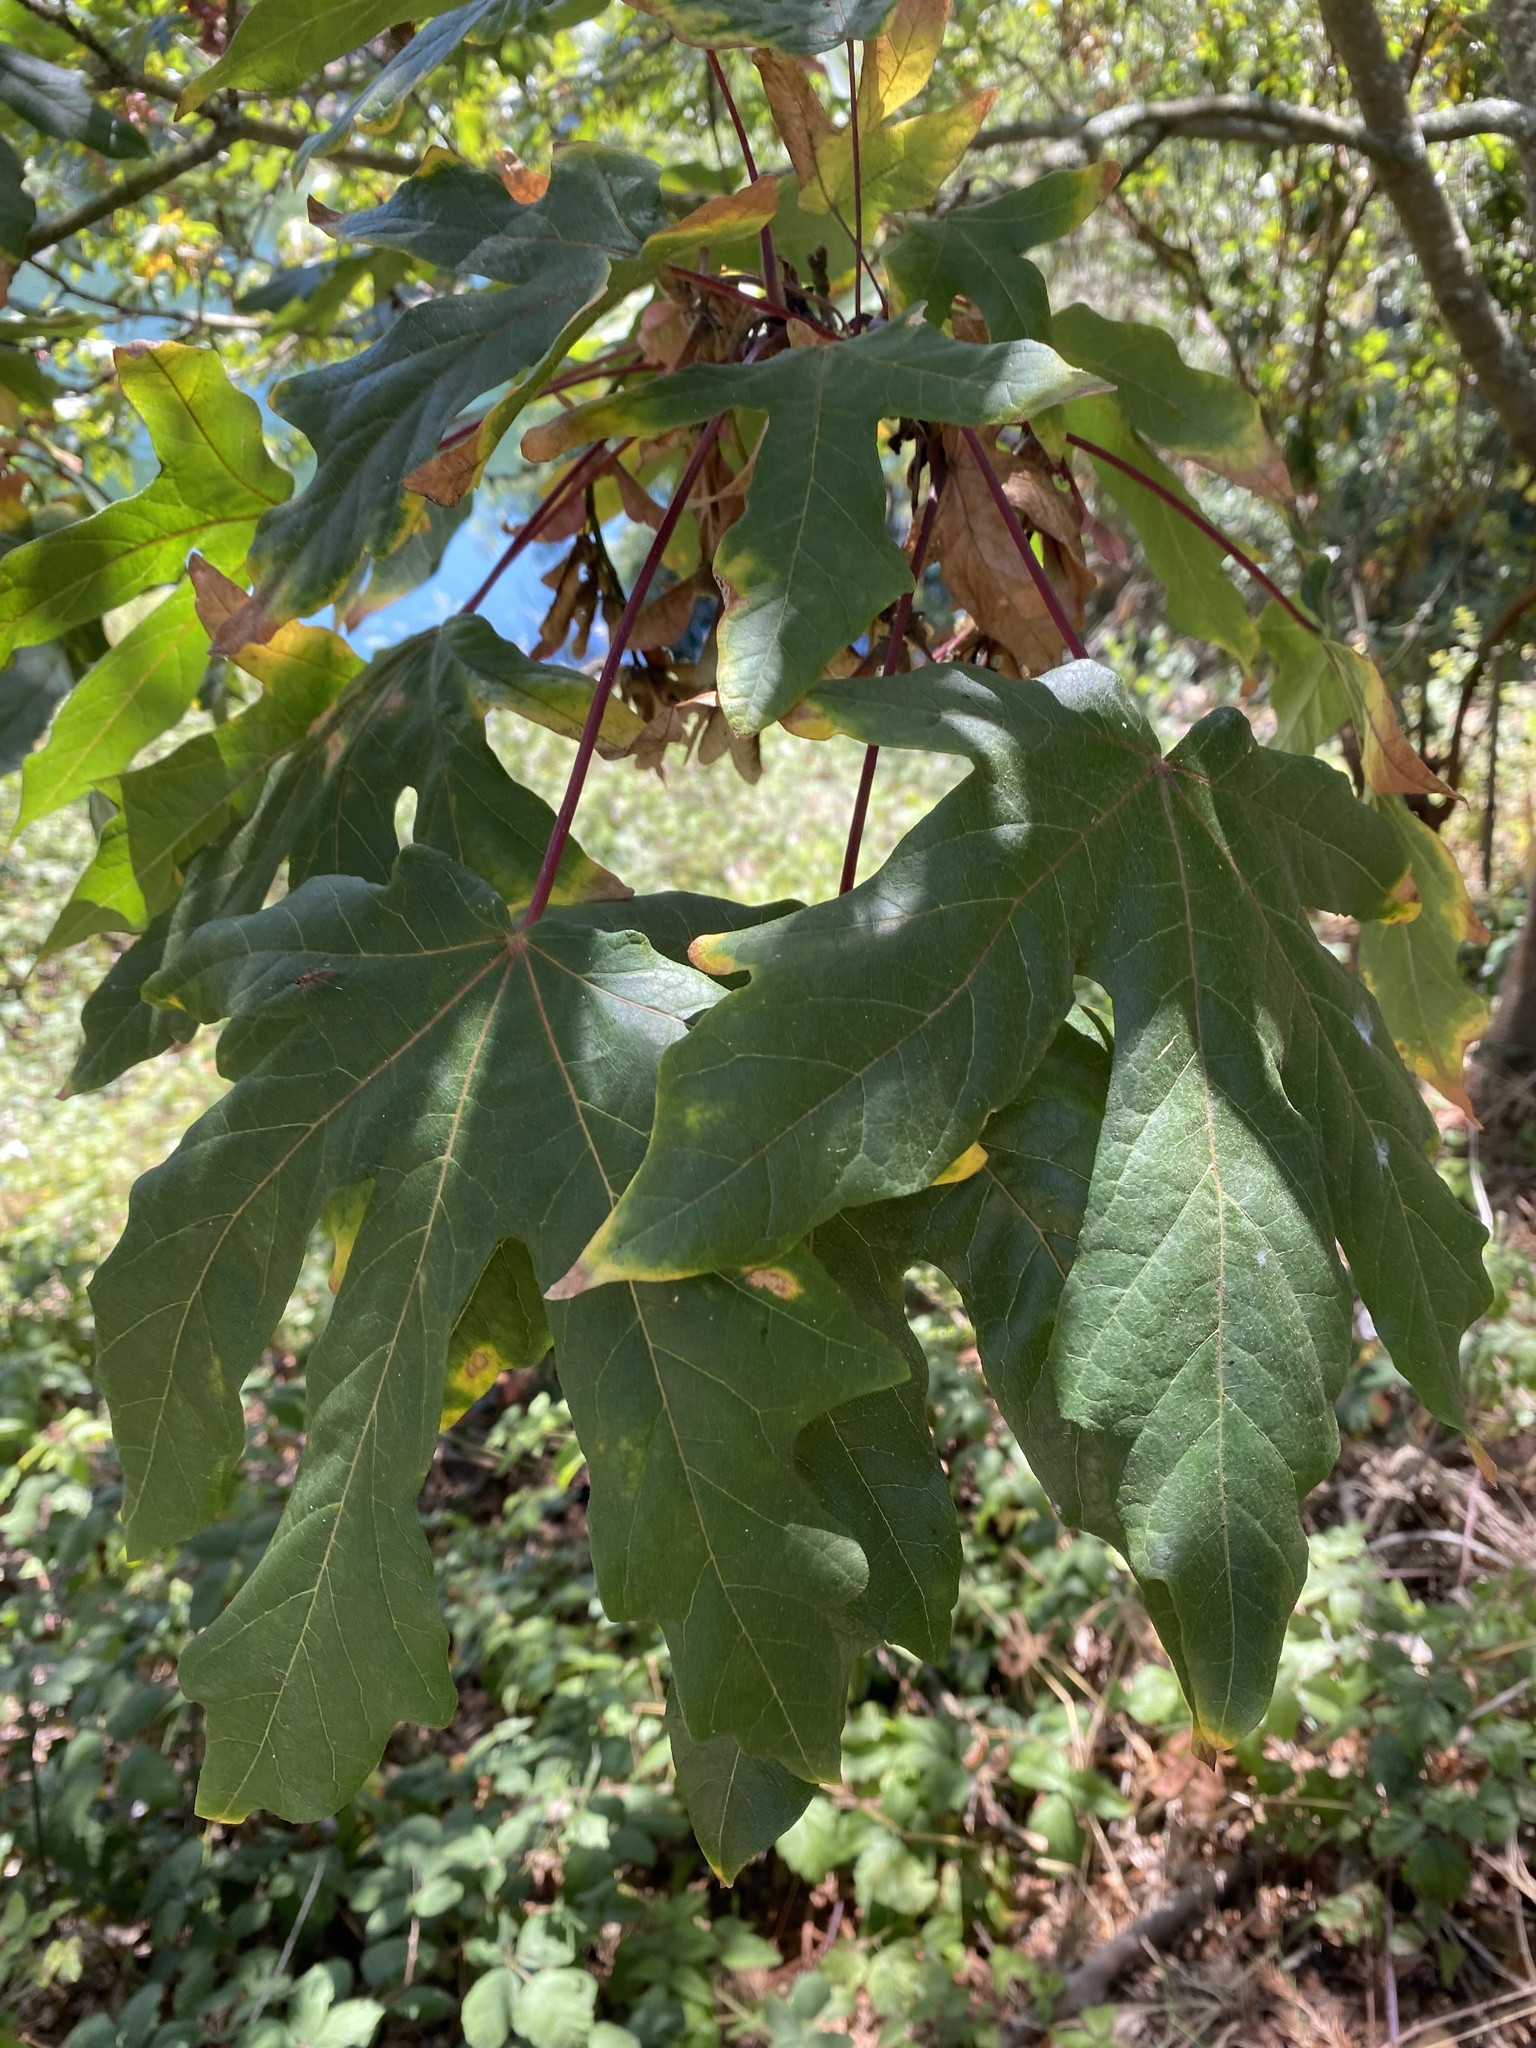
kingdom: Plantae
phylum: Tracheophyta
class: Magnoliopsida
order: Sapindales
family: Sapindaceae
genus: Acer
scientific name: Acer macrophyllum
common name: Oregon maple
